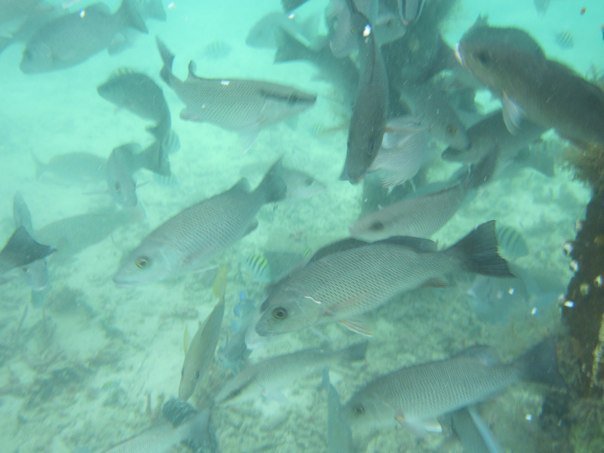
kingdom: Animalia
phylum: Chordata
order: Perciformes
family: Lutjanidae
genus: Lutjanus
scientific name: Lutjanus griseus
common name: Gray snapper
